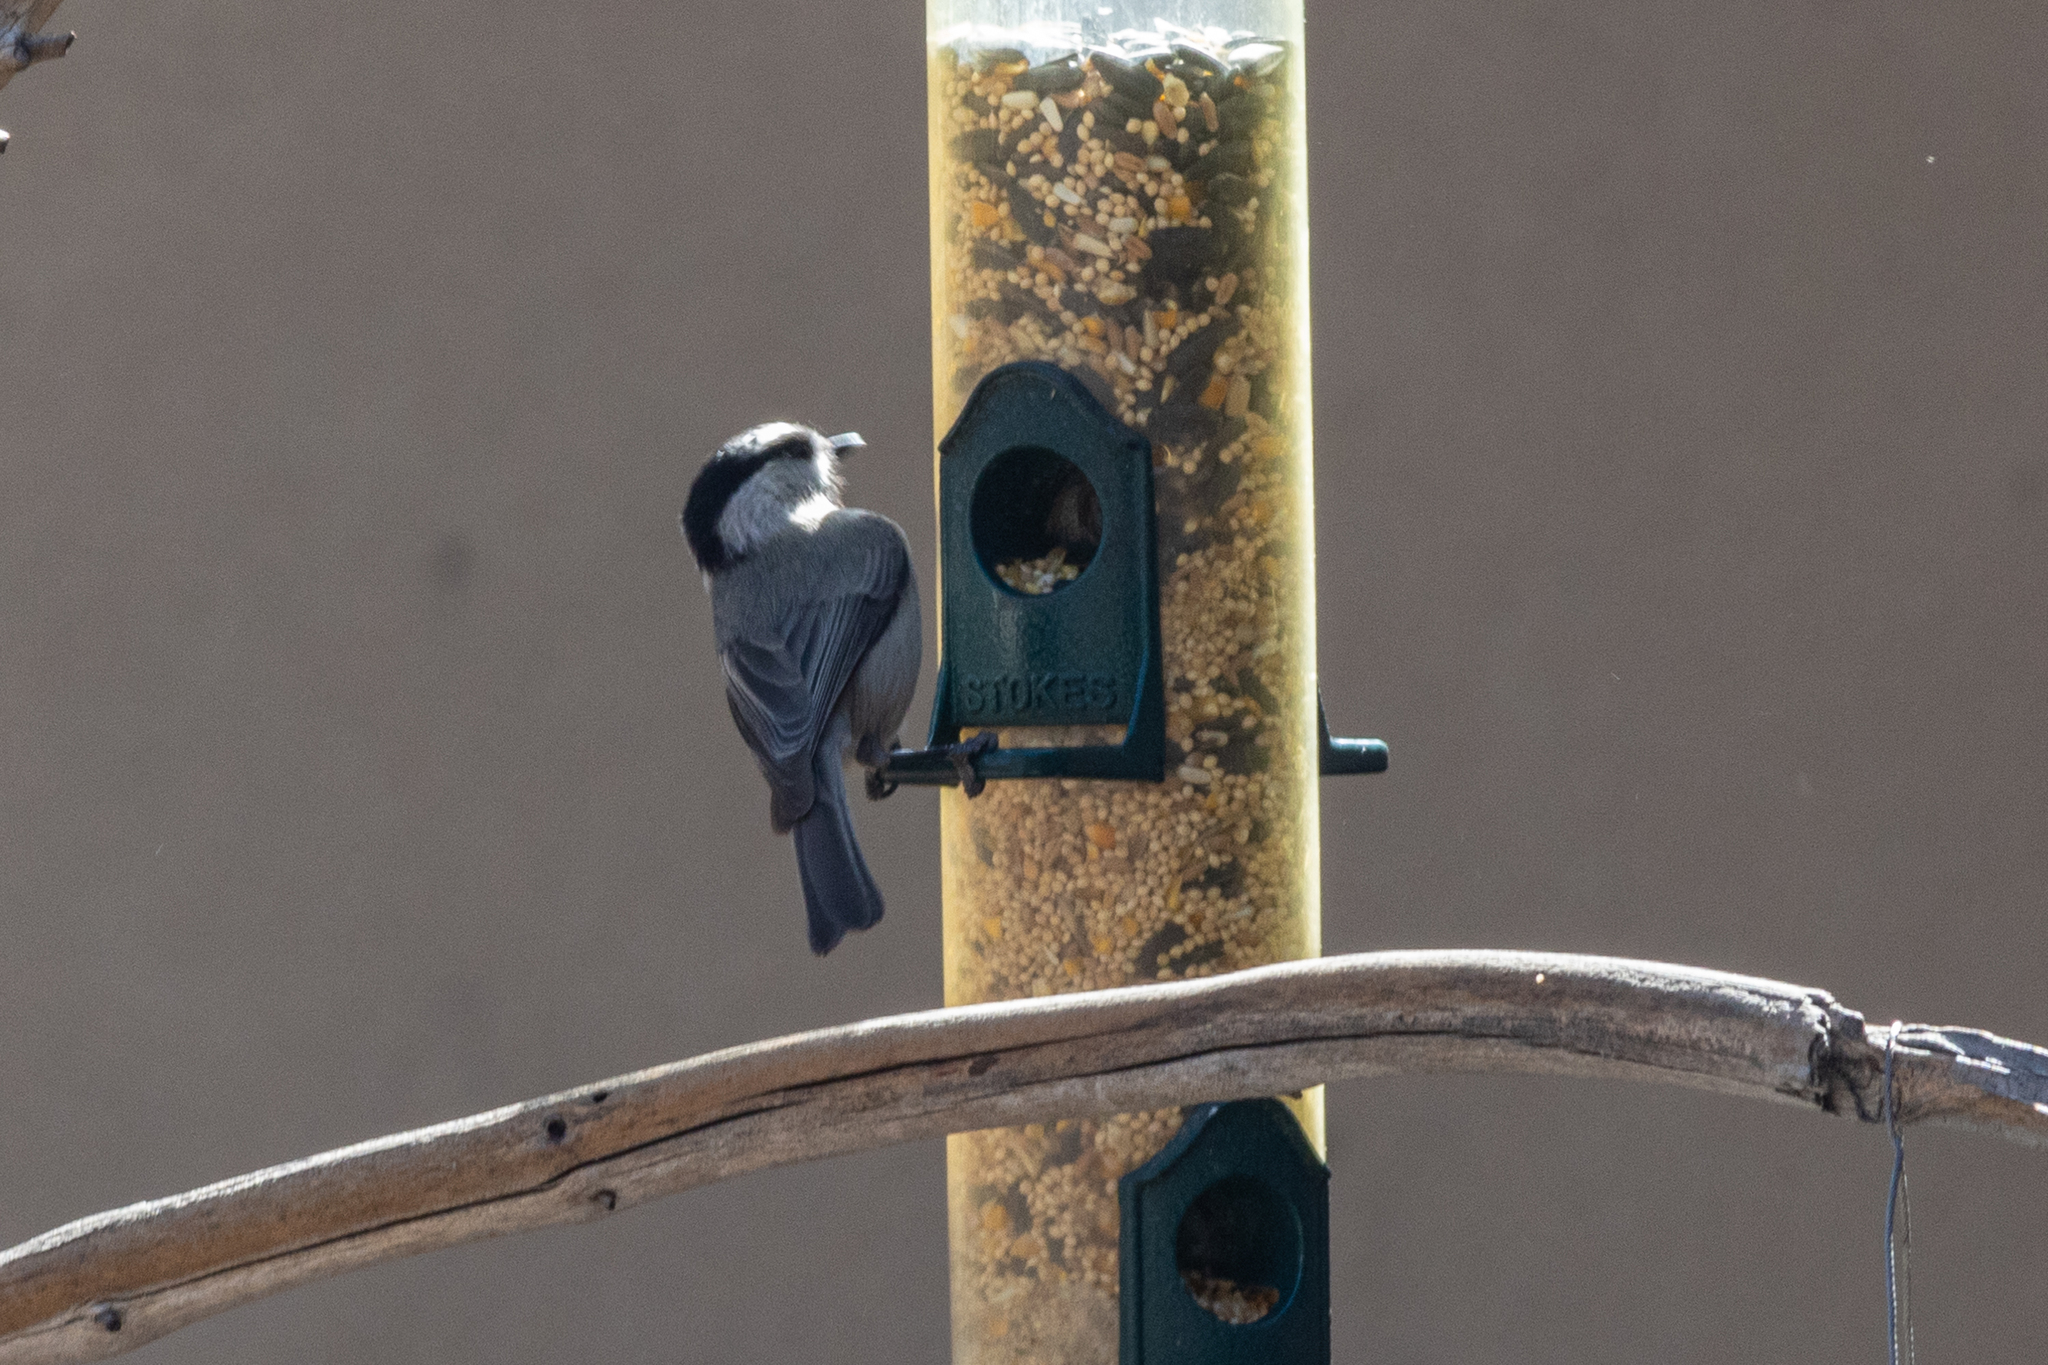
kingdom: Animalia
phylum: Chordata
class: Aves
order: Passeriformes
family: Paridae
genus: Poecile
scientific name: Poecile gambeli
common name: Mountain chickadee
